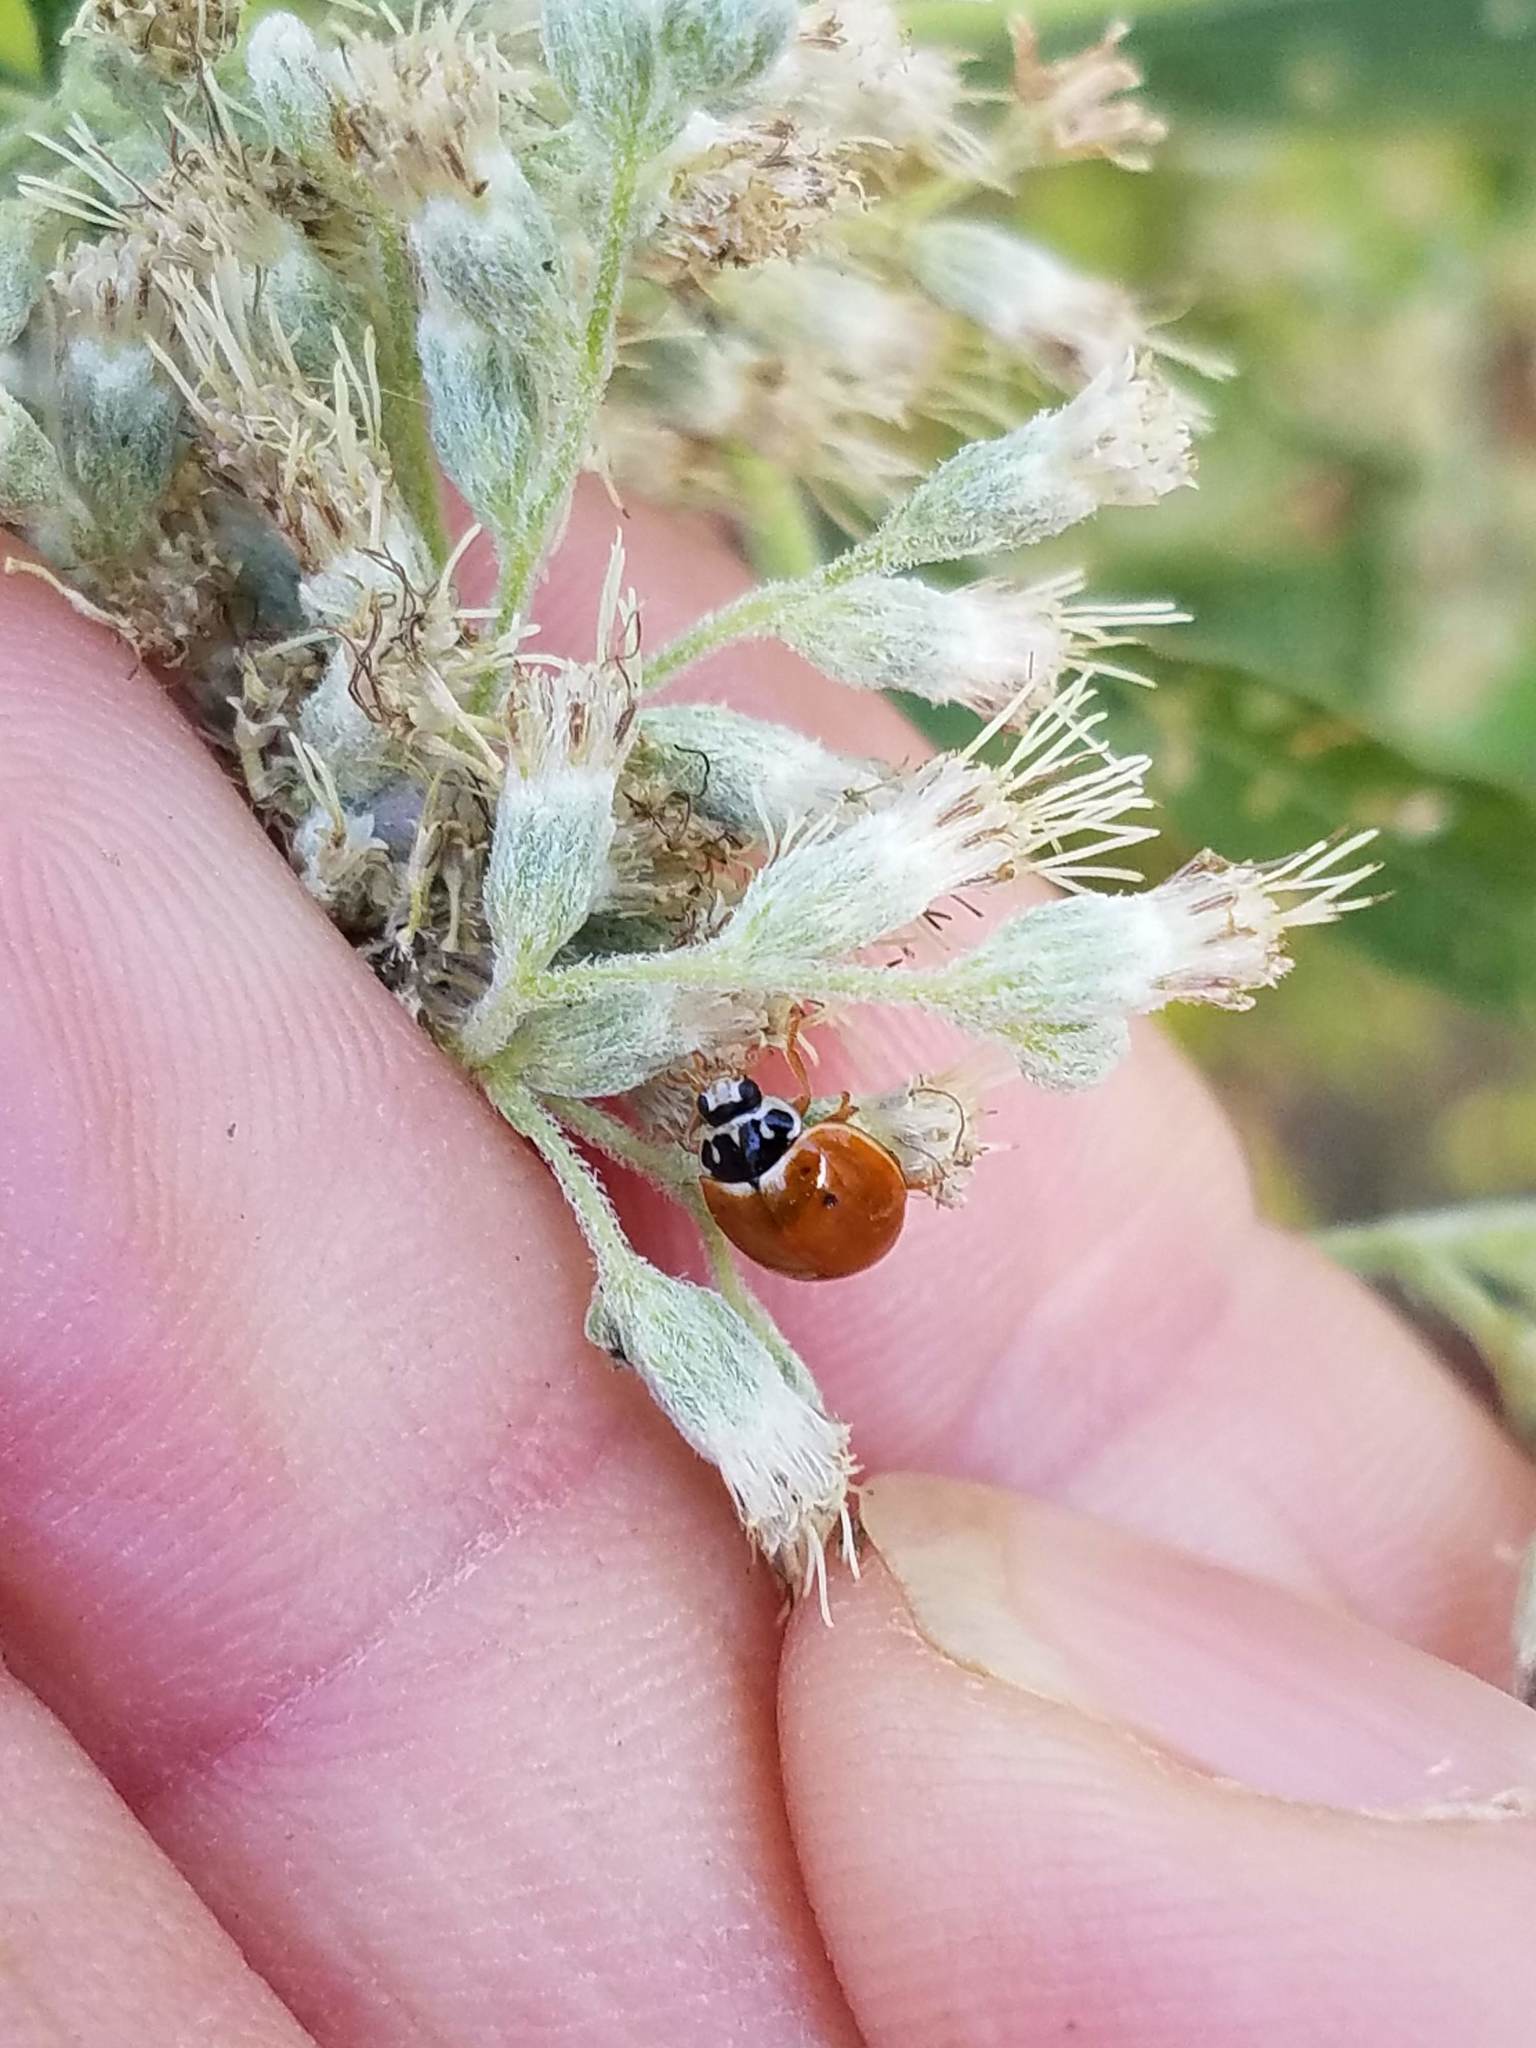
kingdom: Animalia
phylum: Arthropoda
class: Insecta
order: Coleoptera
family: Coccinellidae
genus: Cycloneda
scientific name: Cycloneda munda
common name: Polished lady beetle
